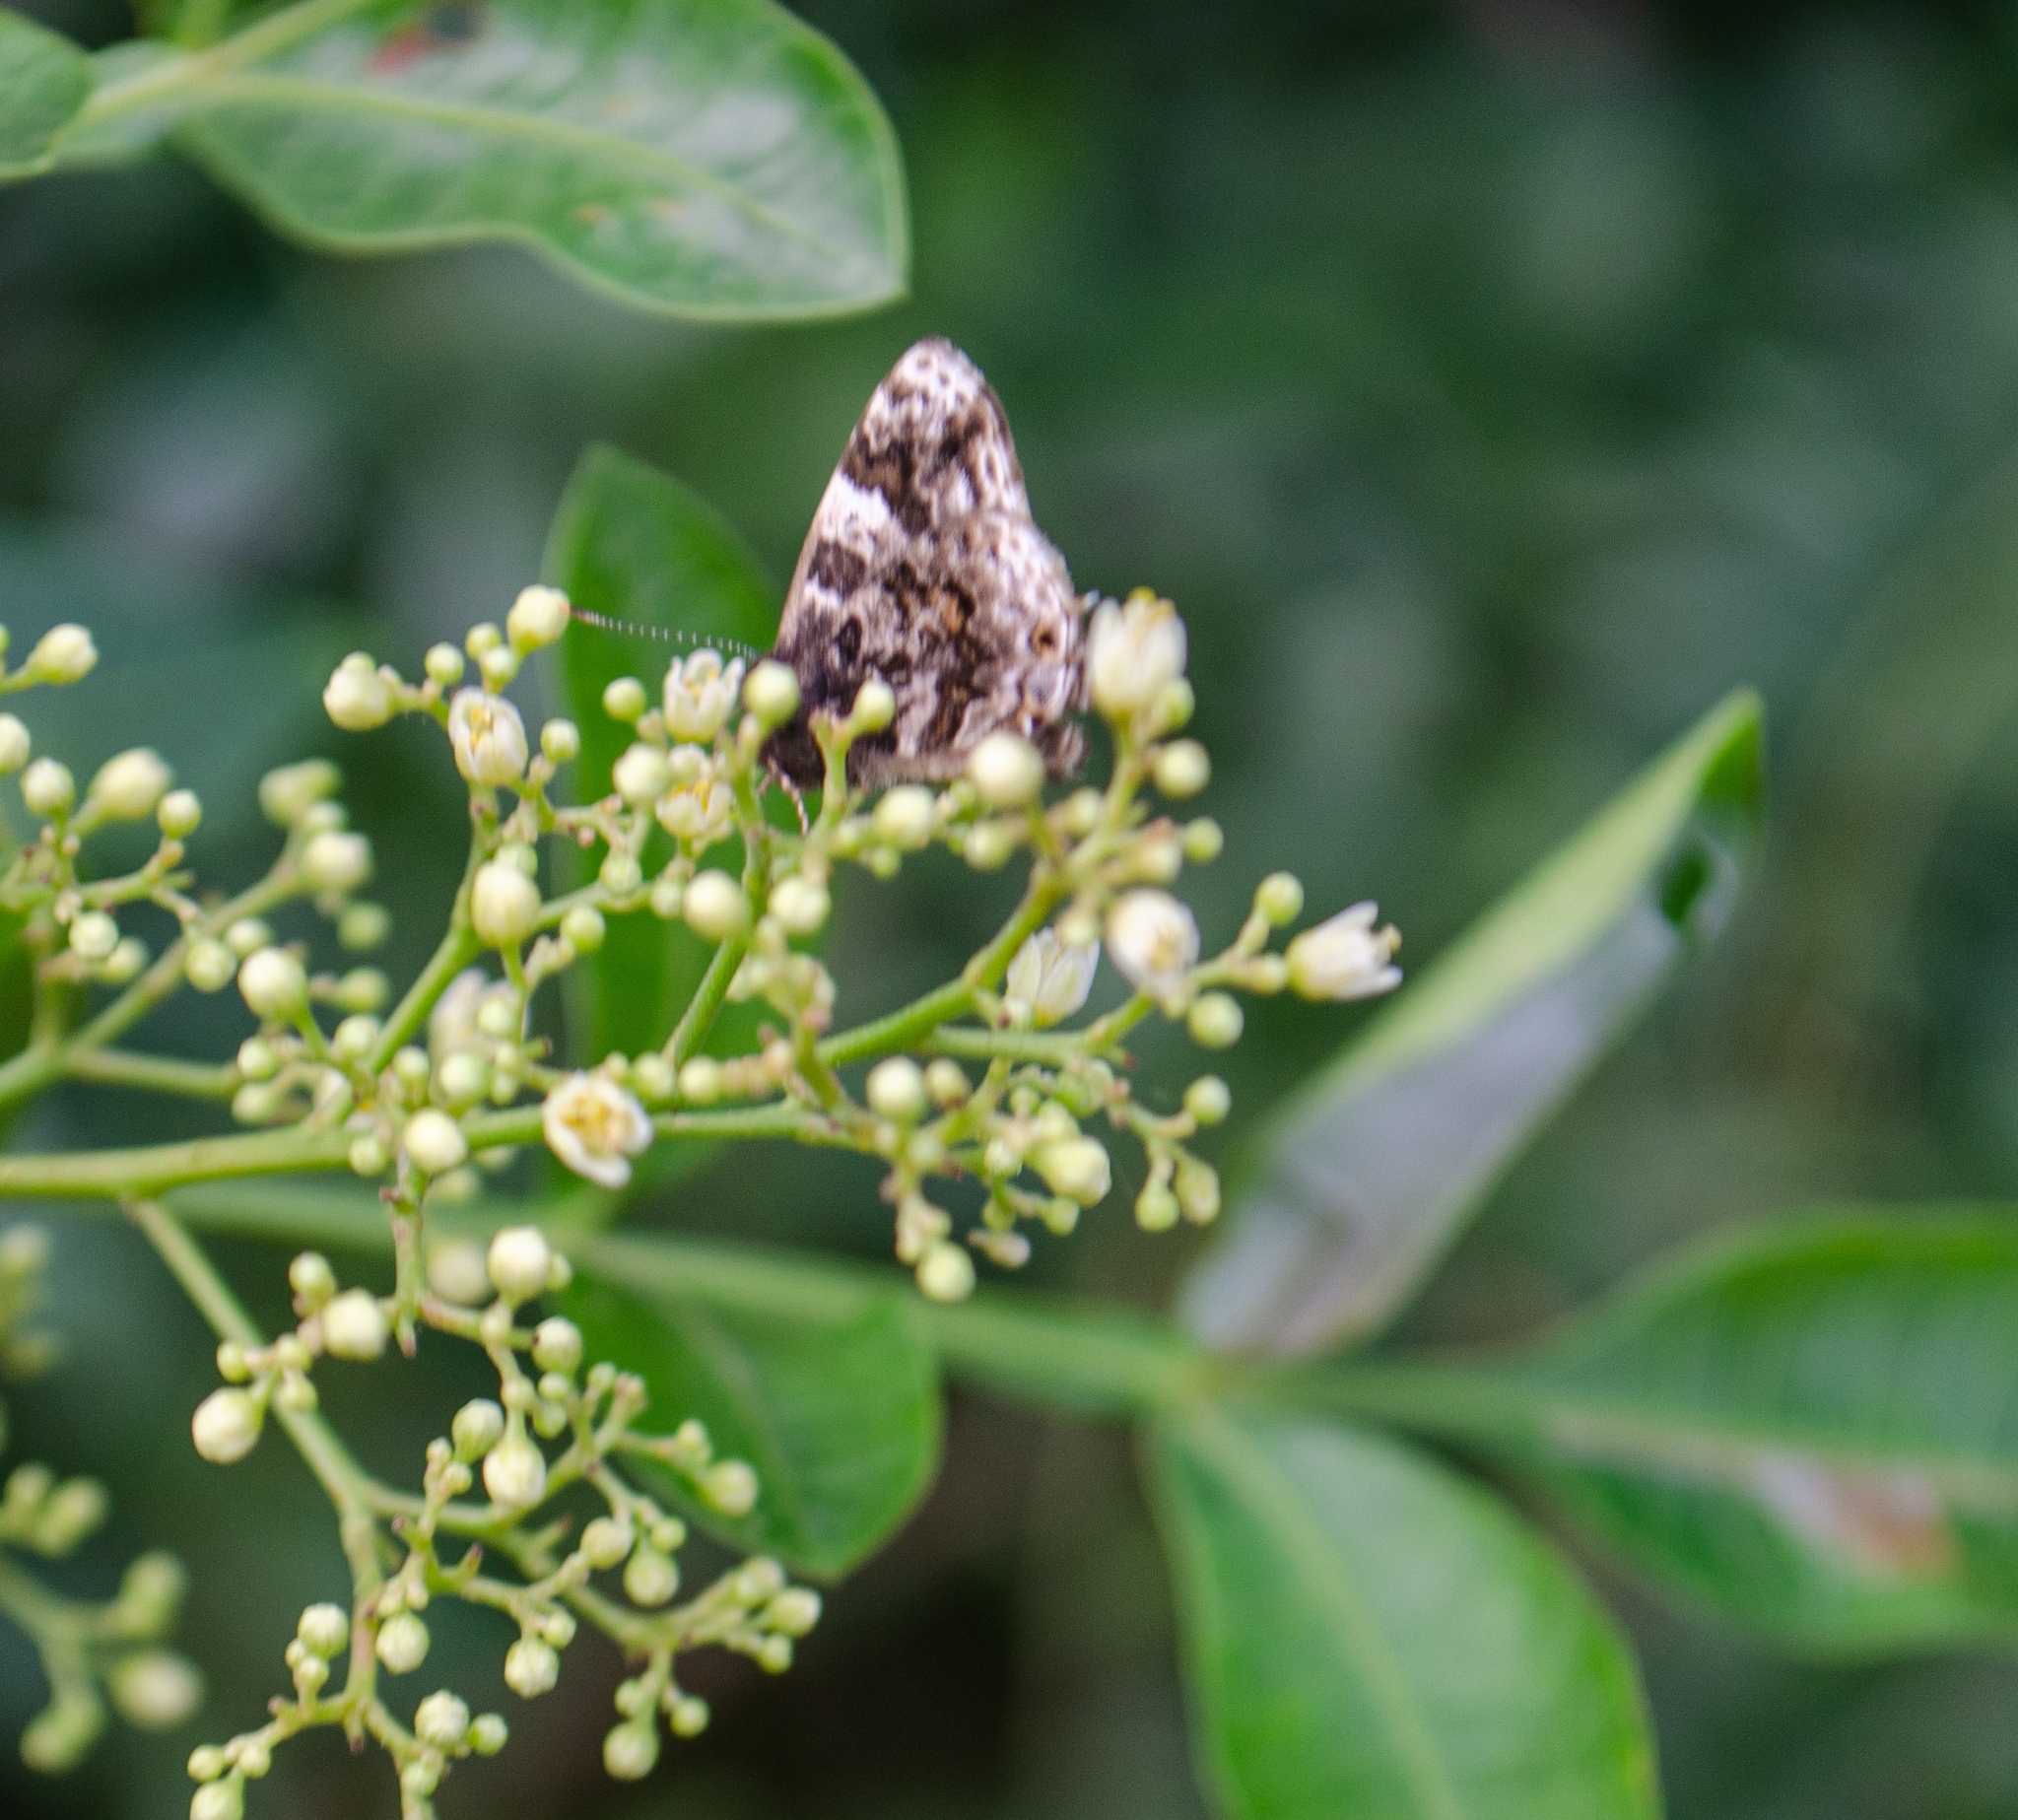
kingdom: Animalia
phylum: Arthropoda
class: Insecta
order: Lepidoptera
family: Lycaenidae
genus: Aubergina
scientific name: Aubergina vanessoides
